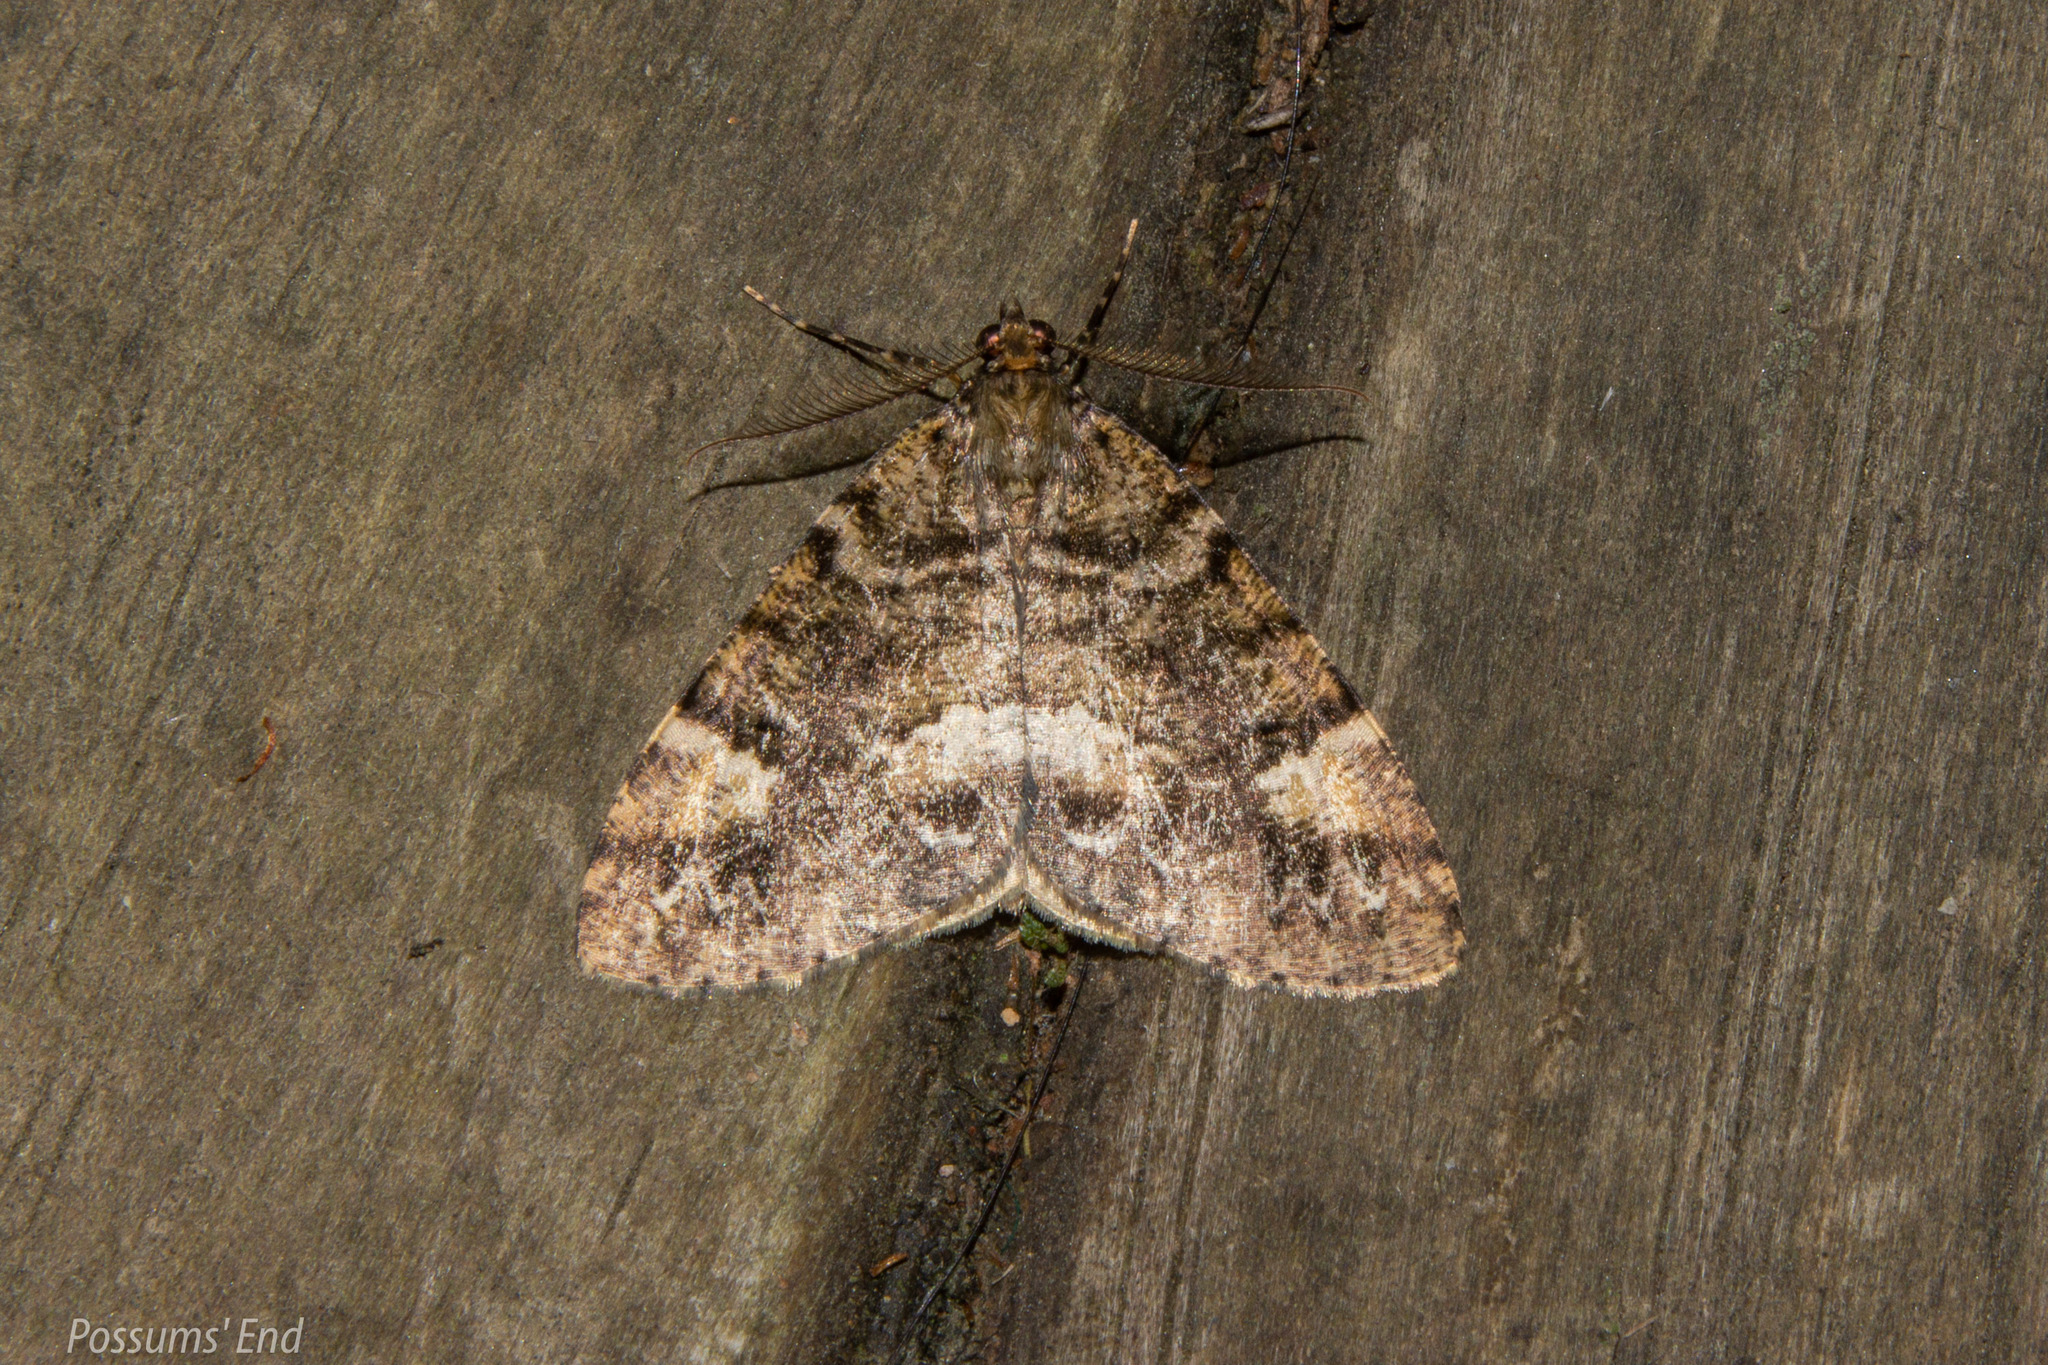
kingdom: Animalia
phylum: Arthropoda
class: Insecta
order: Lepidoptera
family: Geometridae
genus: Pseudocoremia
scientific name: Pseudocoremia productata
